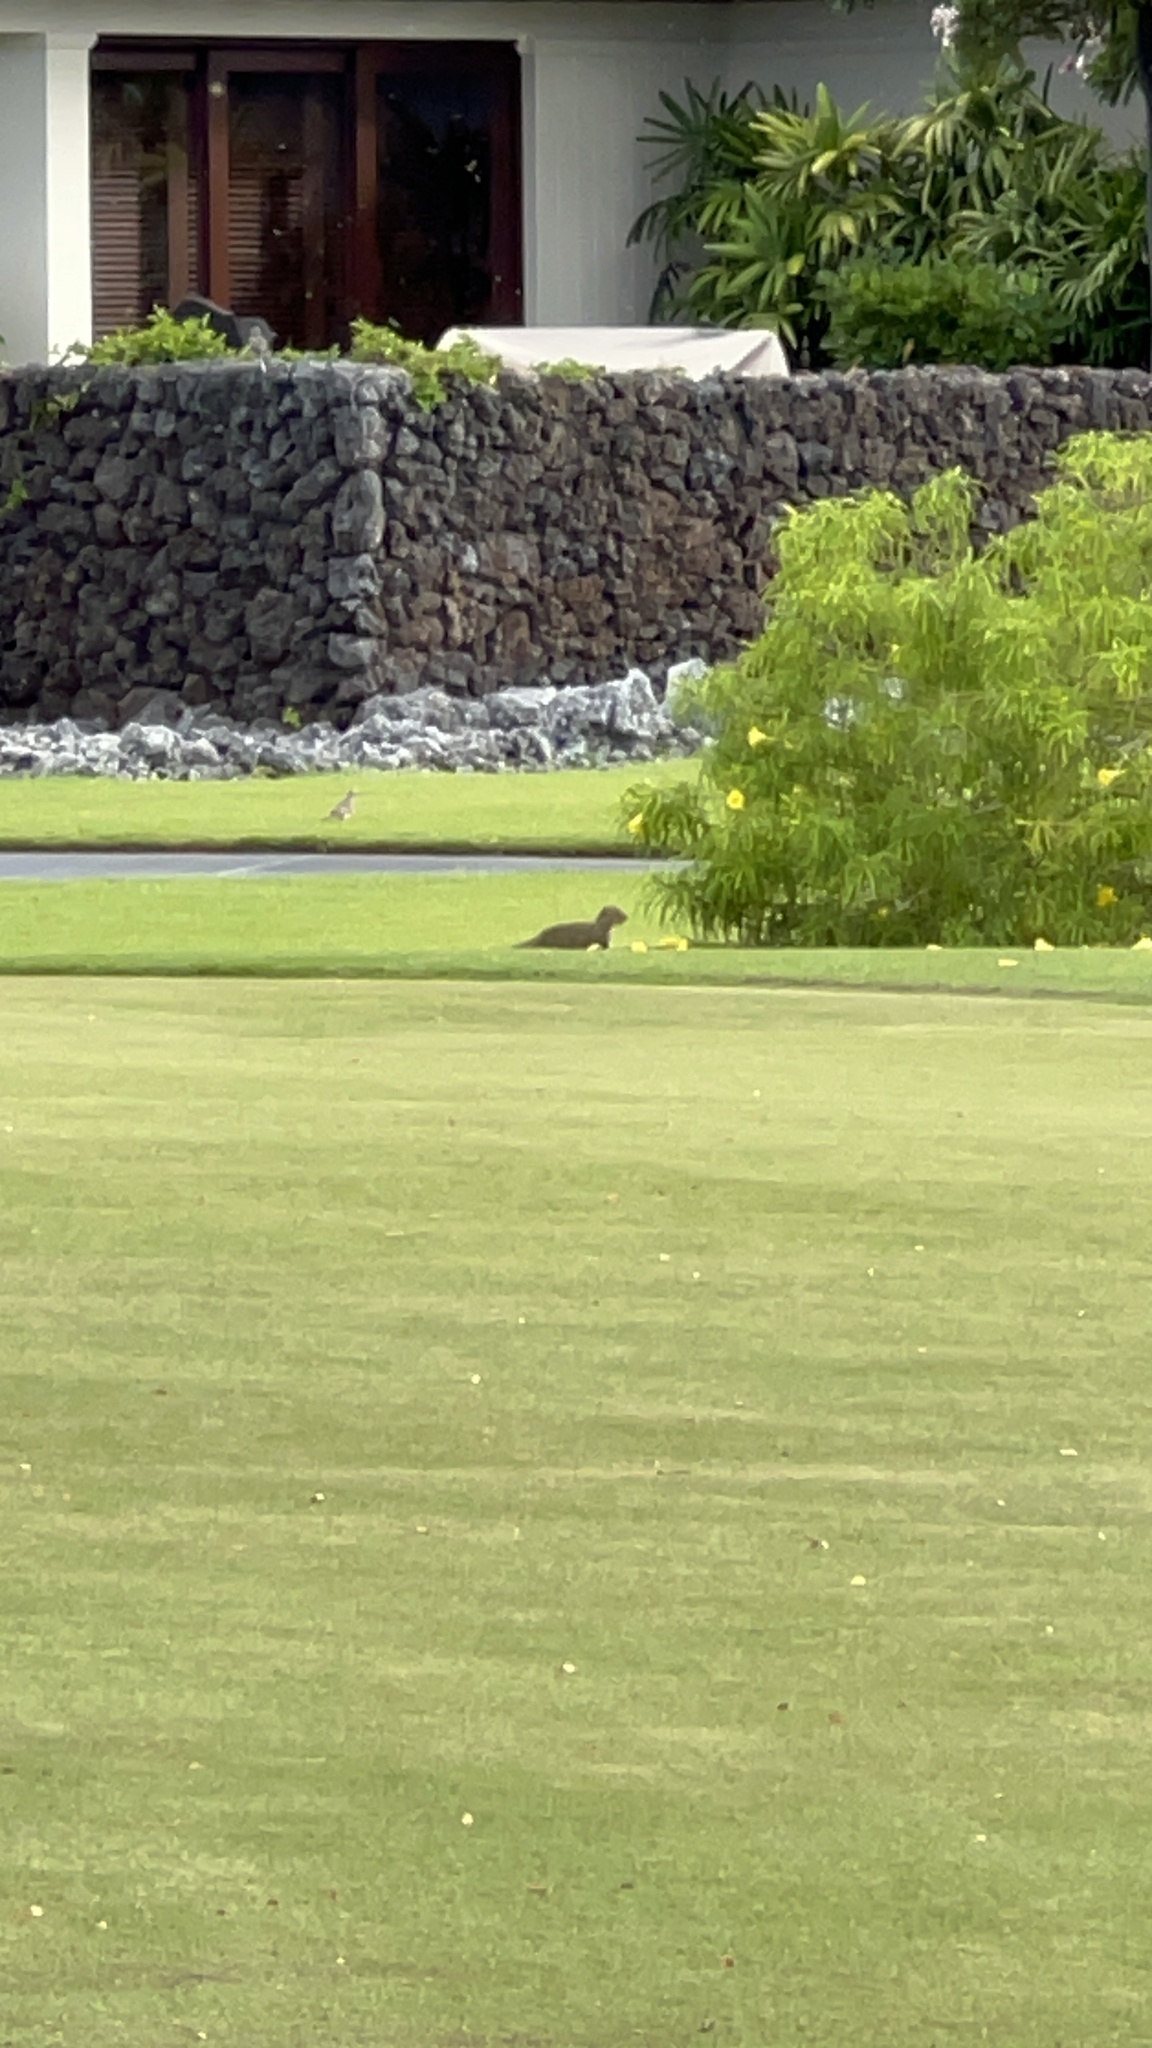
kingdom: Animalia
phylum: Chordata
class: Mammalia
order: Carnivora
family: Herpestidae
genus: Herpestes
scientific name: Herpestes javanicus
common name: Small asian mongoose
